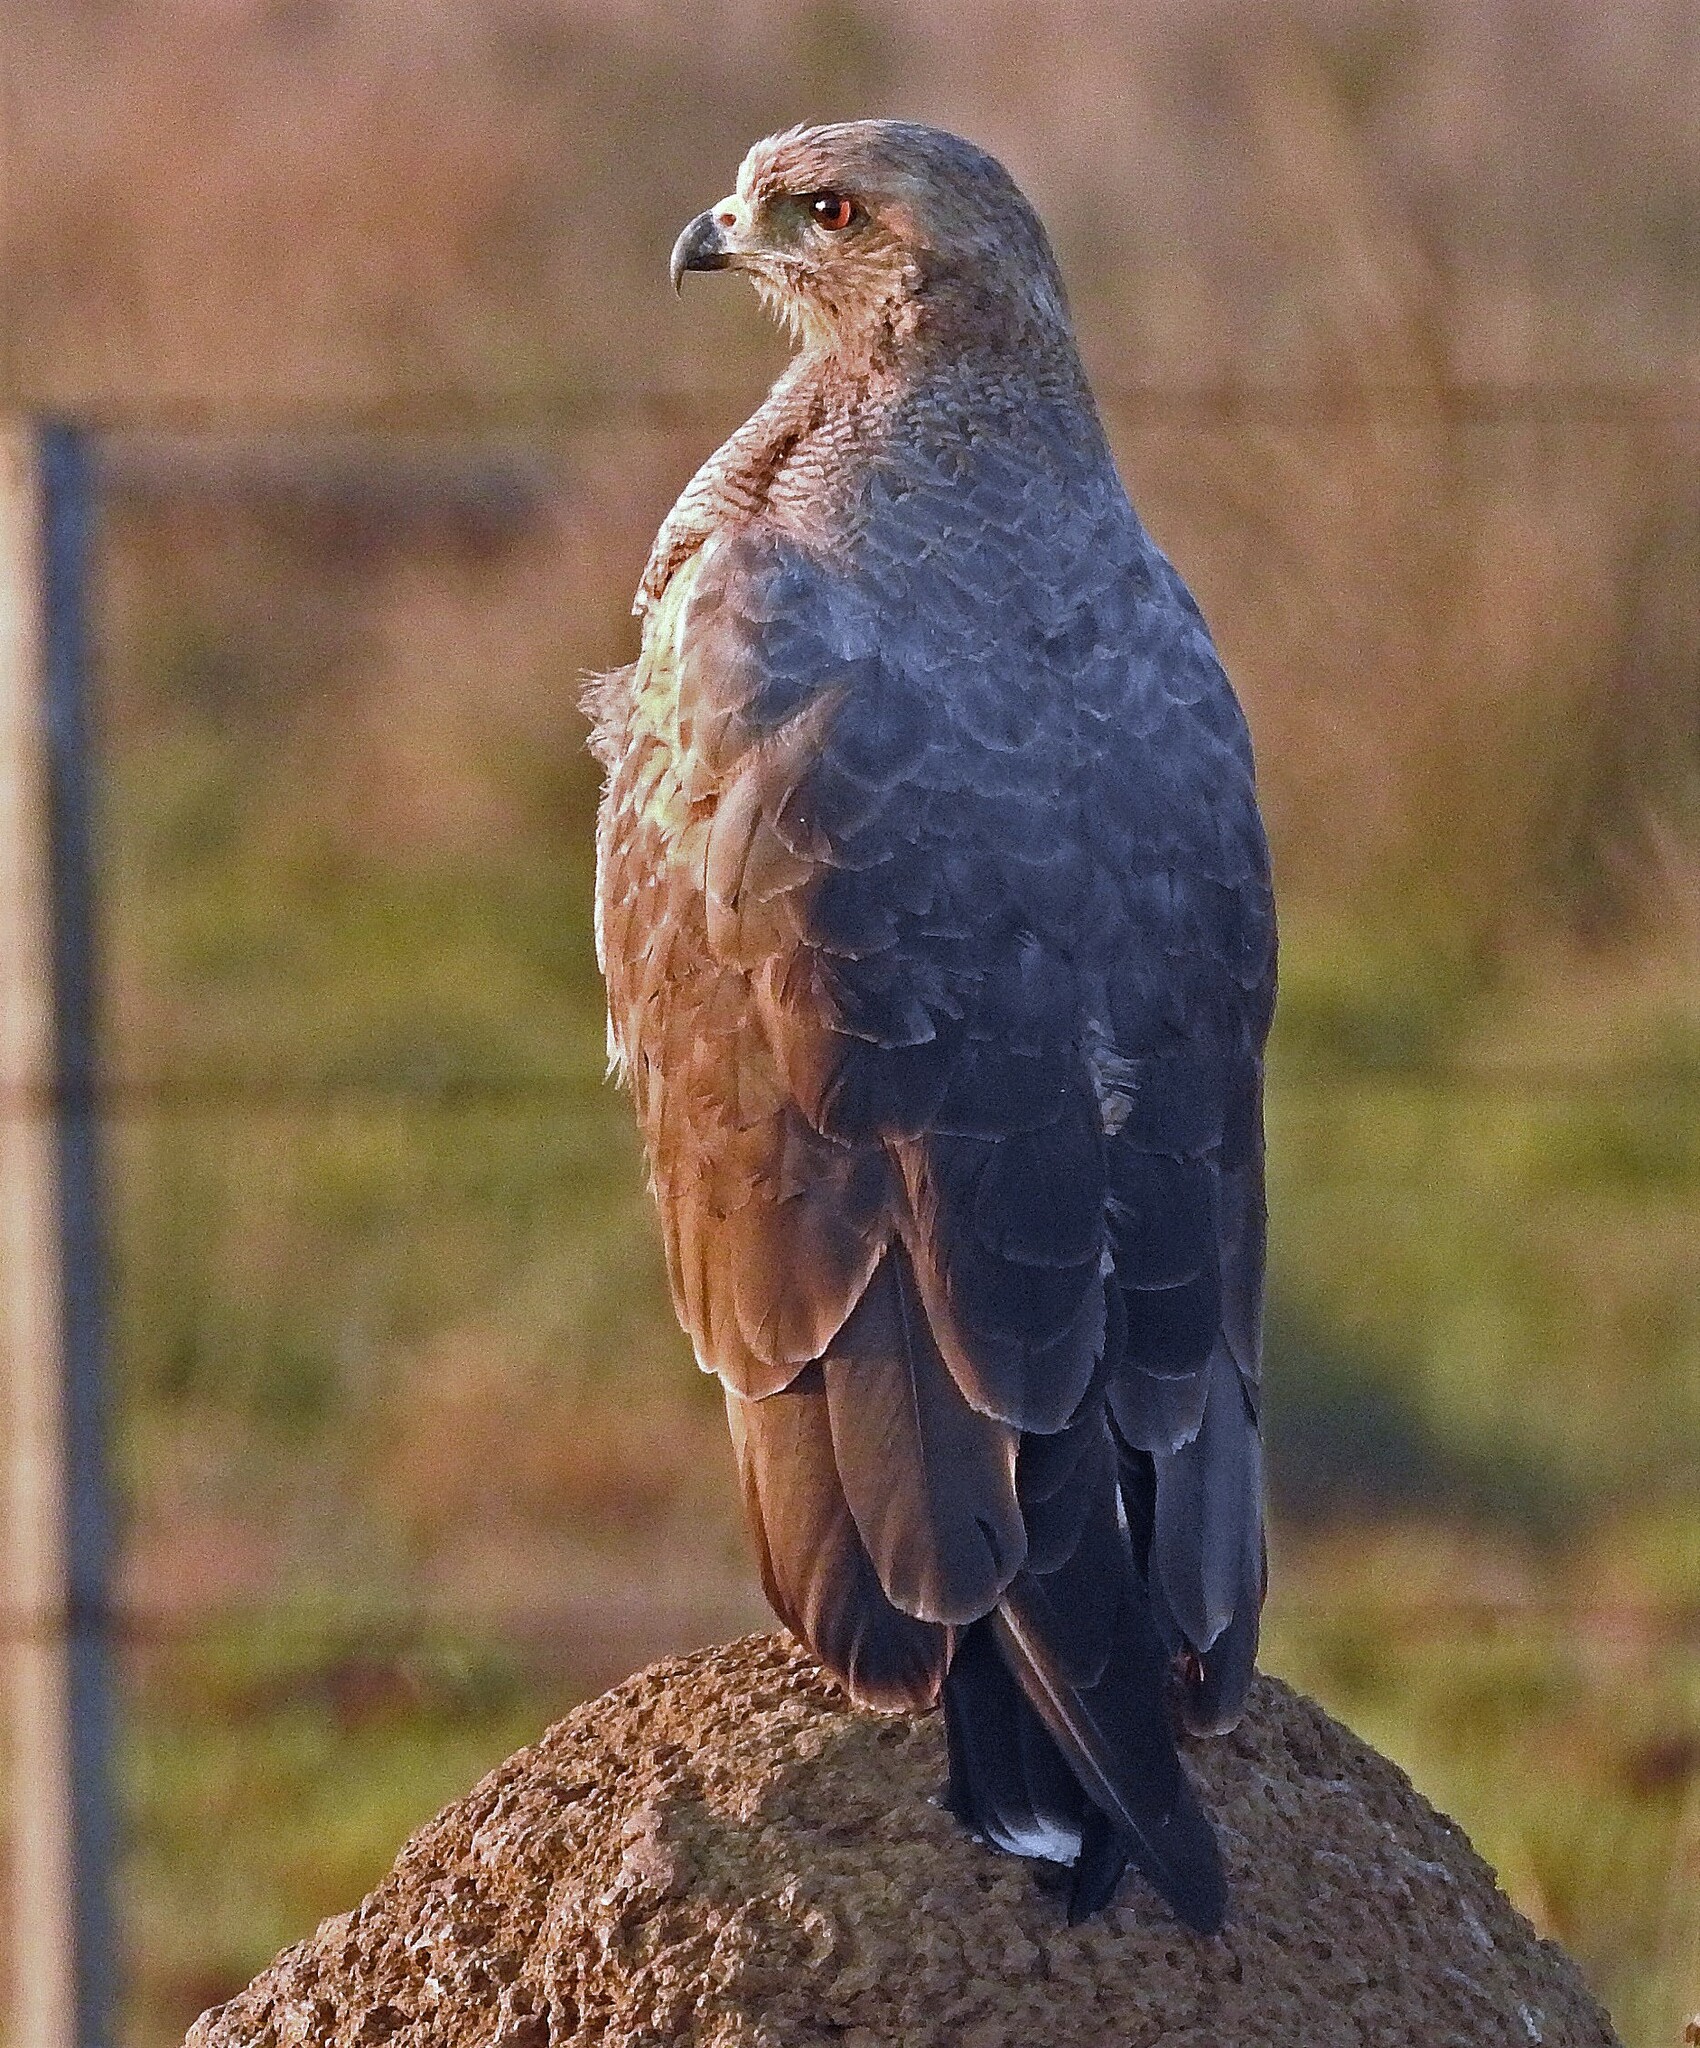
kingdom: Animalia
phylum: Chordata
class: Aves
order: Accipitriformes
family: Accipitridae
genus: Buteogallus
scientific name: Buteogallus meridionalis
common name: Savanna hawk
